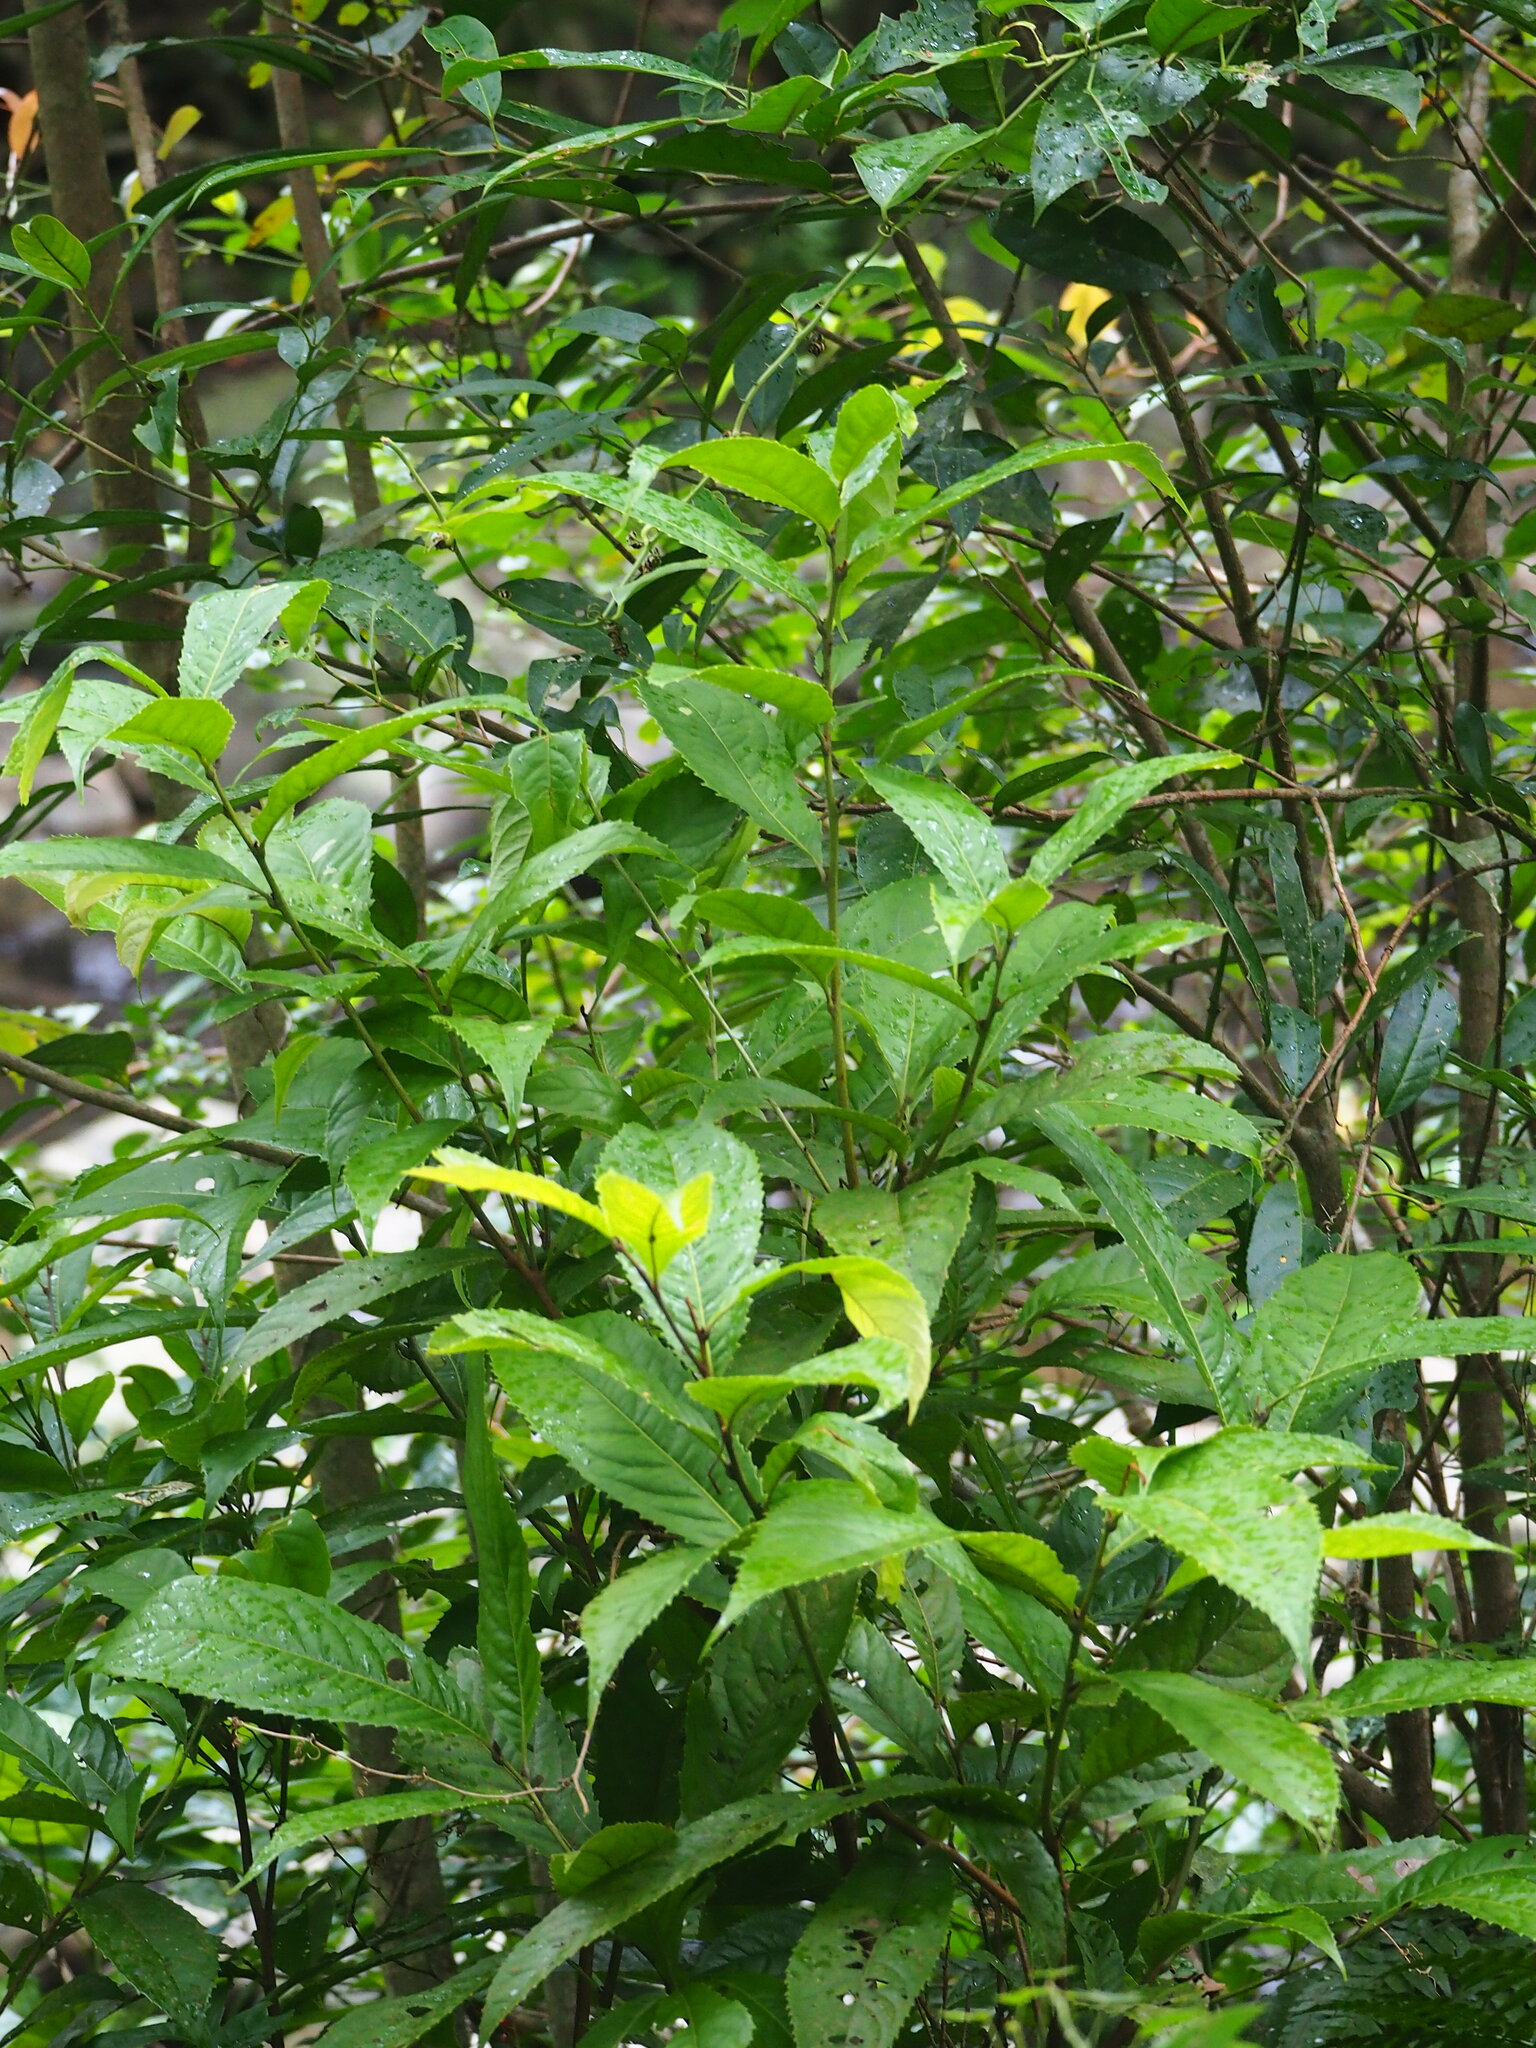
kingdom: Plantae
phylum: Tracheophyta
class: Magnoliopsida
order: Proteales
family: Proteaceae
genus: Helicia
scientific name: Helicia formosana
